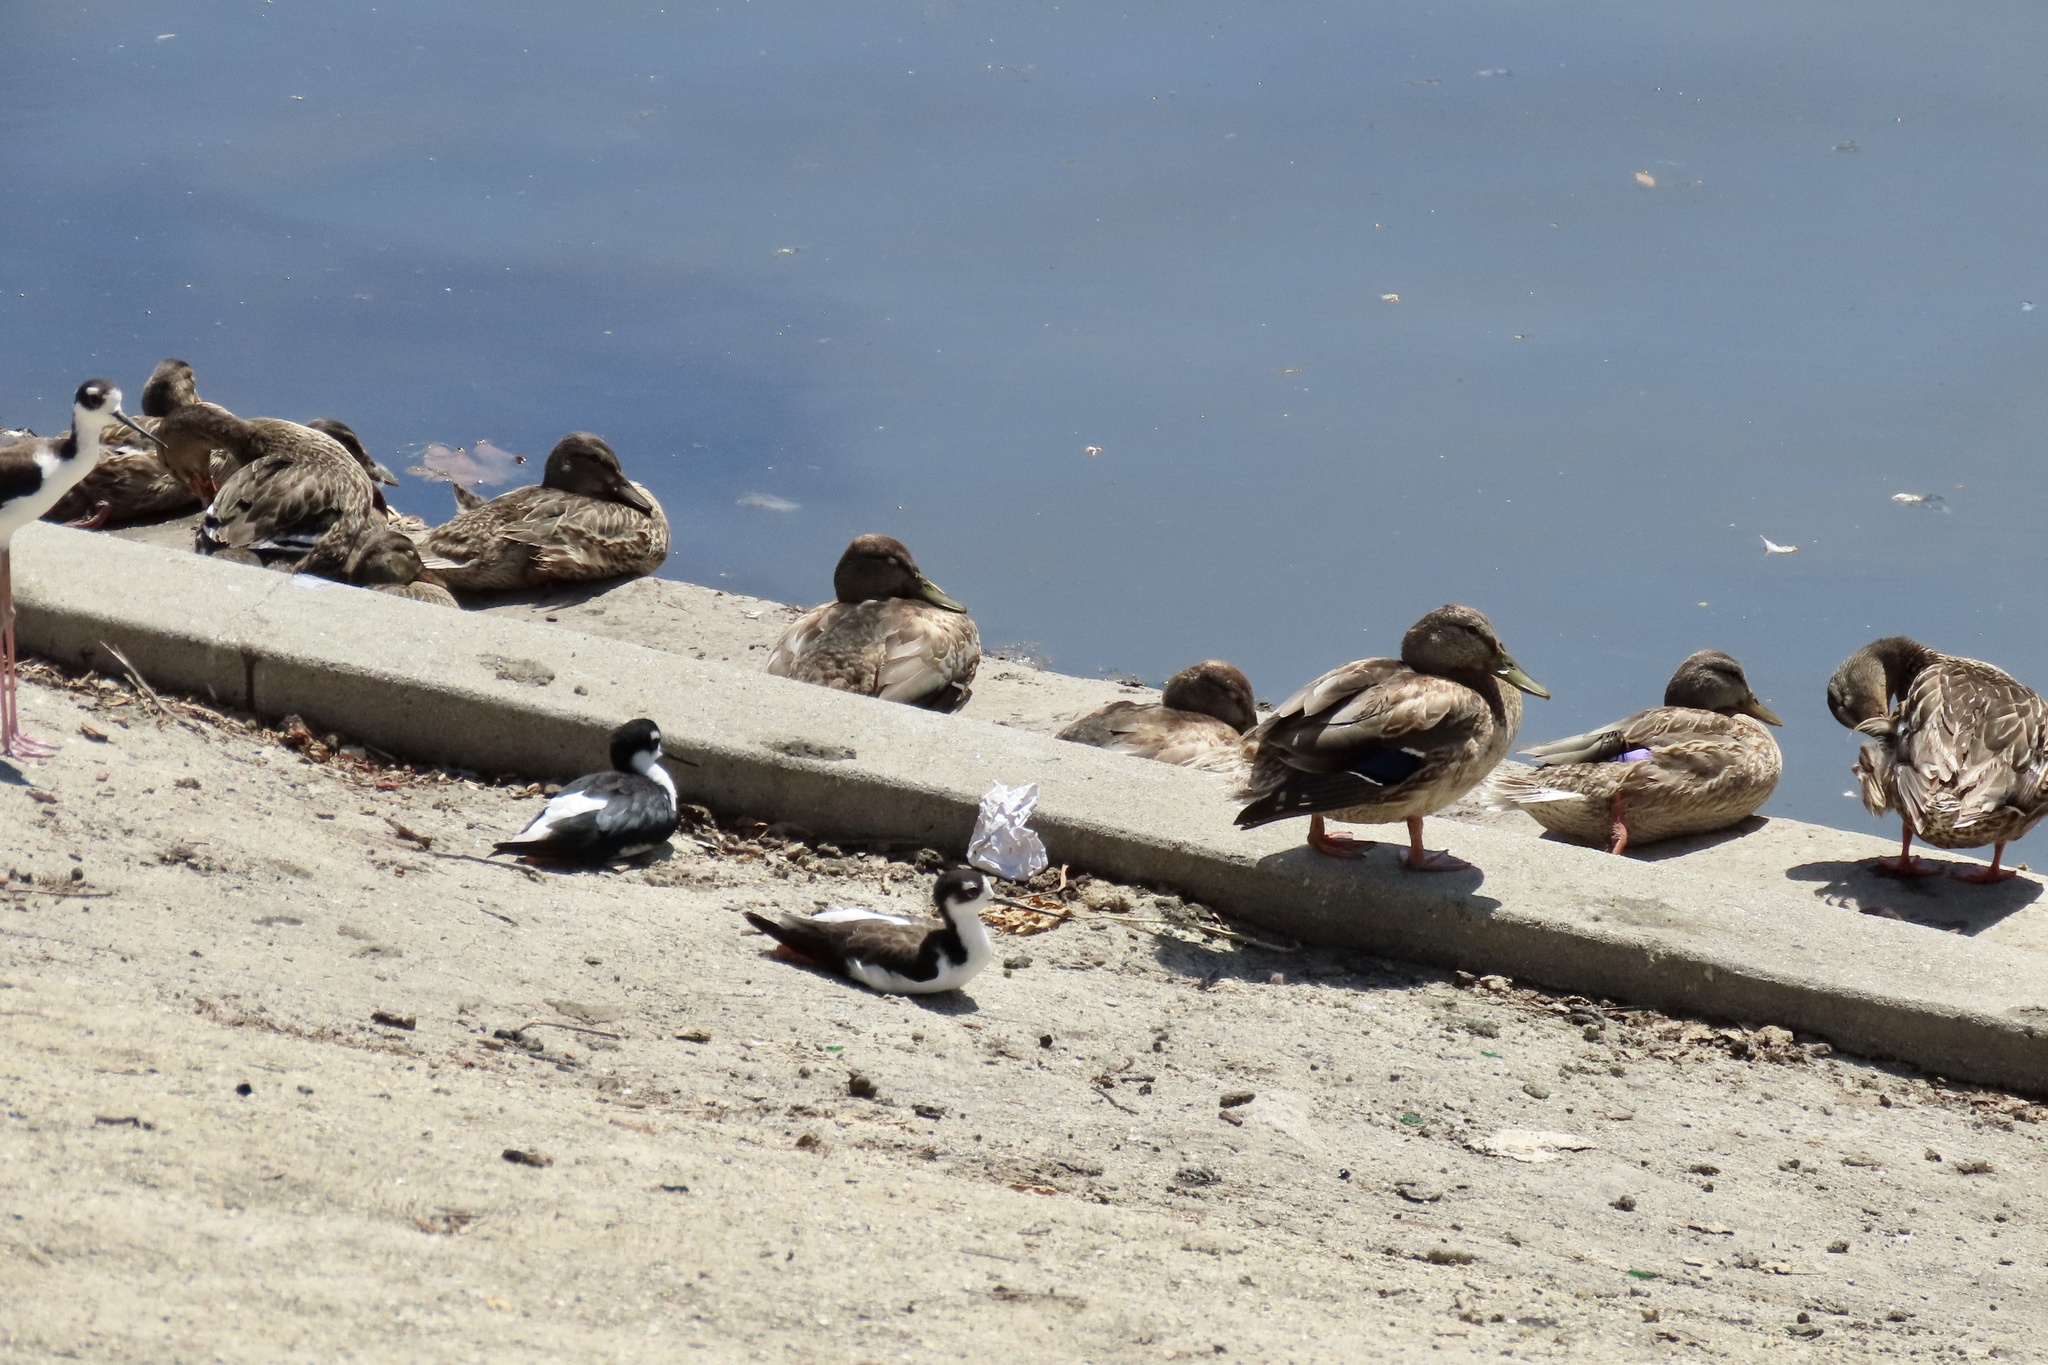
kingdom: Animalia
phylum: Chordata
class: Aves
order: Charadriiformes
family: Recurvirostridae
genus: Himantopus
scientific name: Himantopus mexicanus
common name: Black-necked stilt
